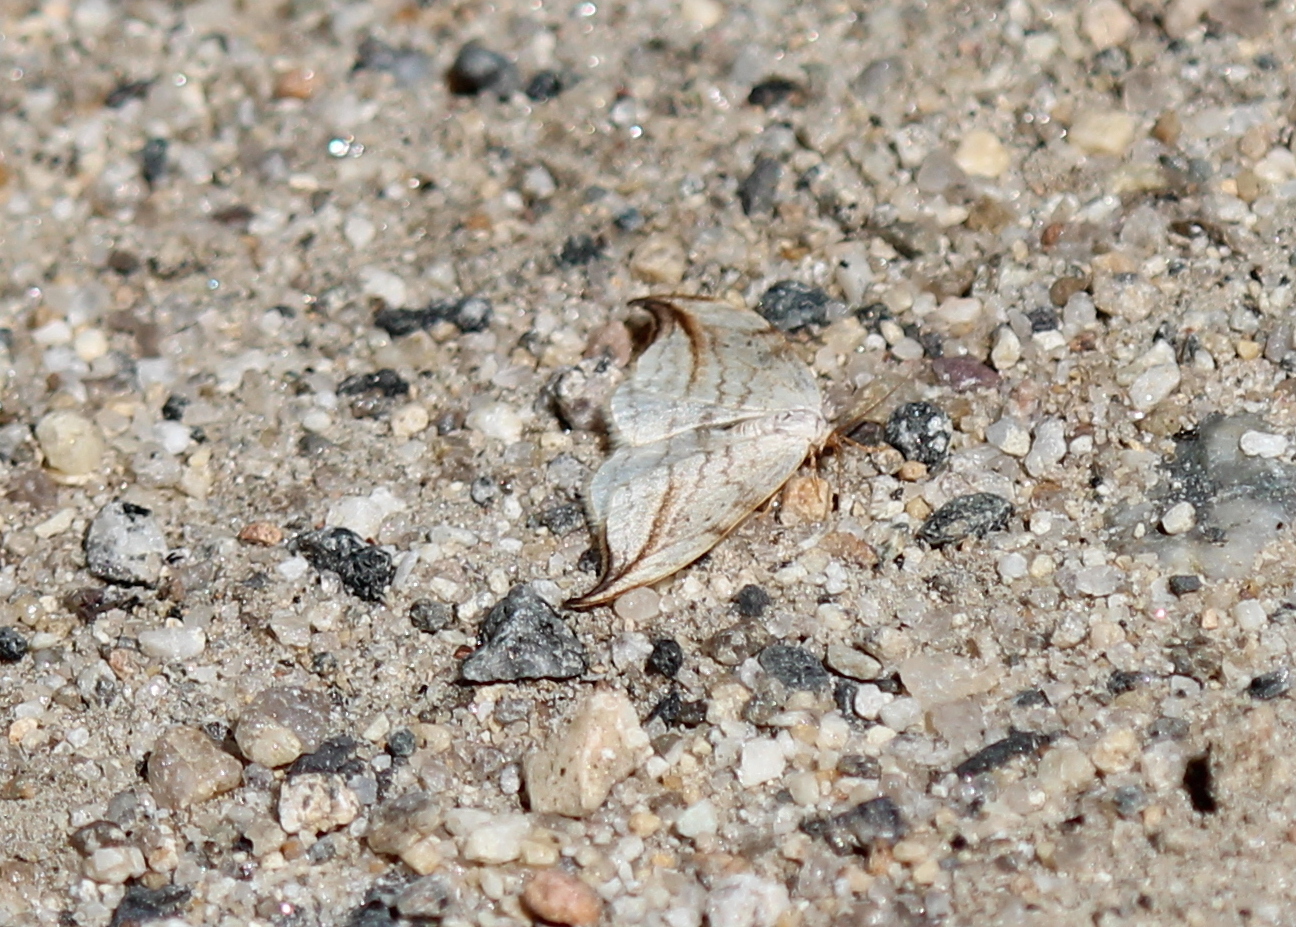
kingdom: Animalia
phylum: Arthropoda
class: Insecta
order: Lepidoptera
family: Drepanidae
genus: Drepana
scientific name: Drepana arcuata
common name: Arched hooktip moth
